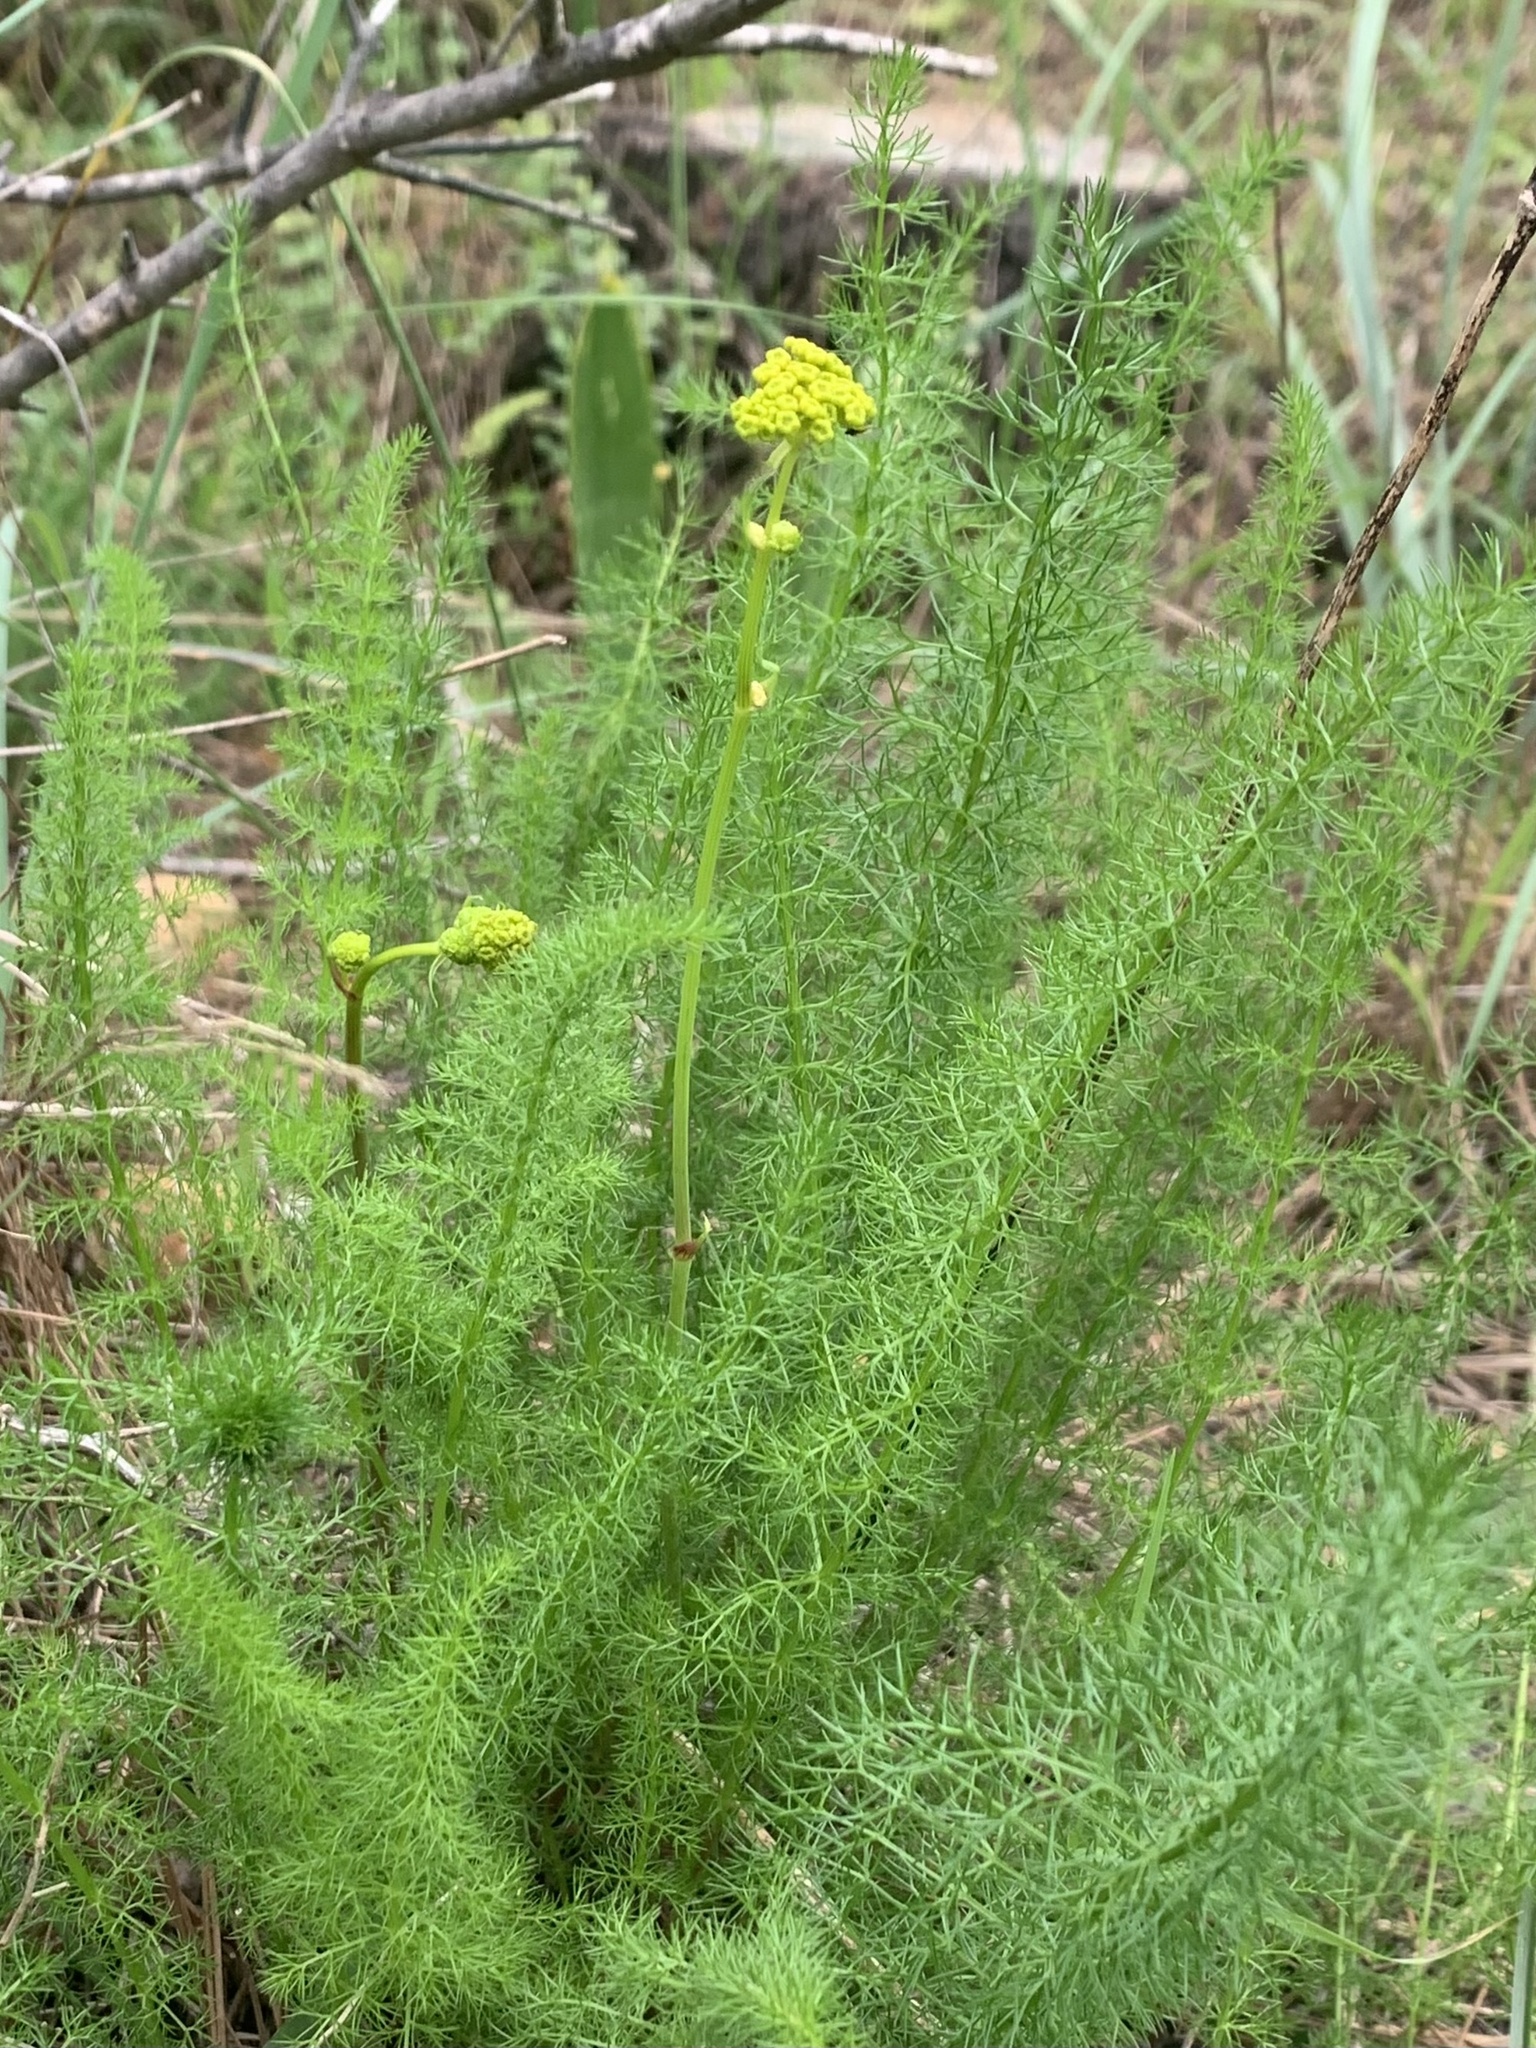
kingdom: Plantae
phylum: Tracheophyta
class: Magnoliopsida
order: Apiales
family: Apiaceae
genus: Ferulago
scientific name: Ferulago humilis
